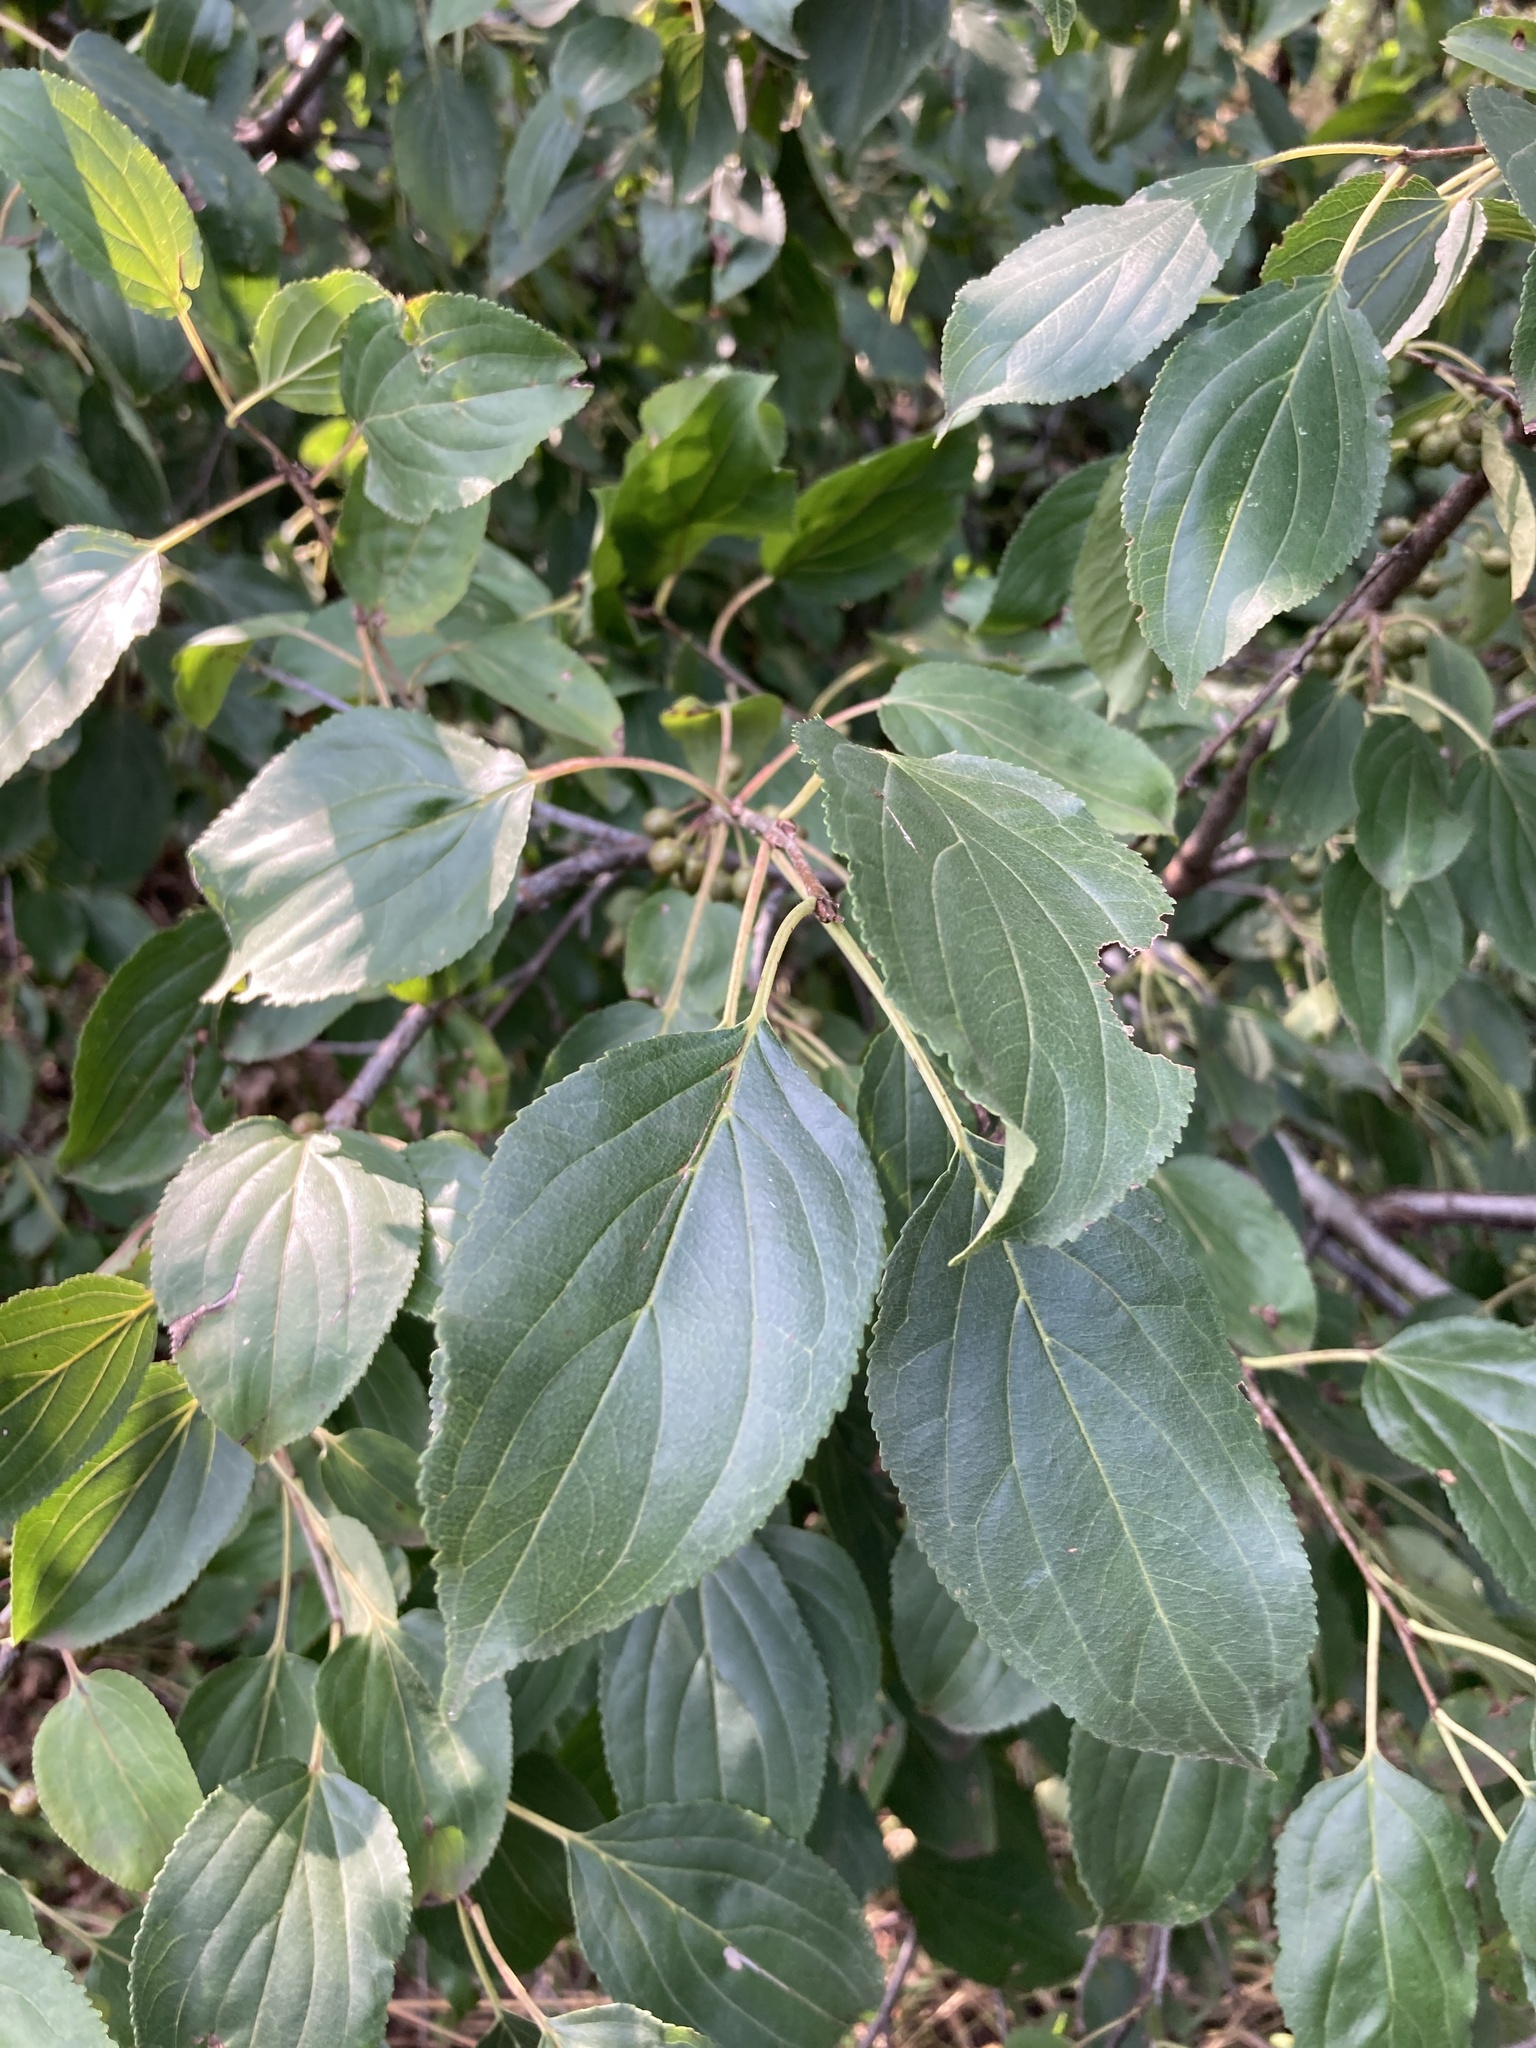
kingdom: Plantae
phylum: Tracheophyta
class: Magnoliopsida
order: Rosales
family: Rhamnaceae
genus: Rhamnus
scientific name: Rhamnus cathartica
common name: Common buckthorn
